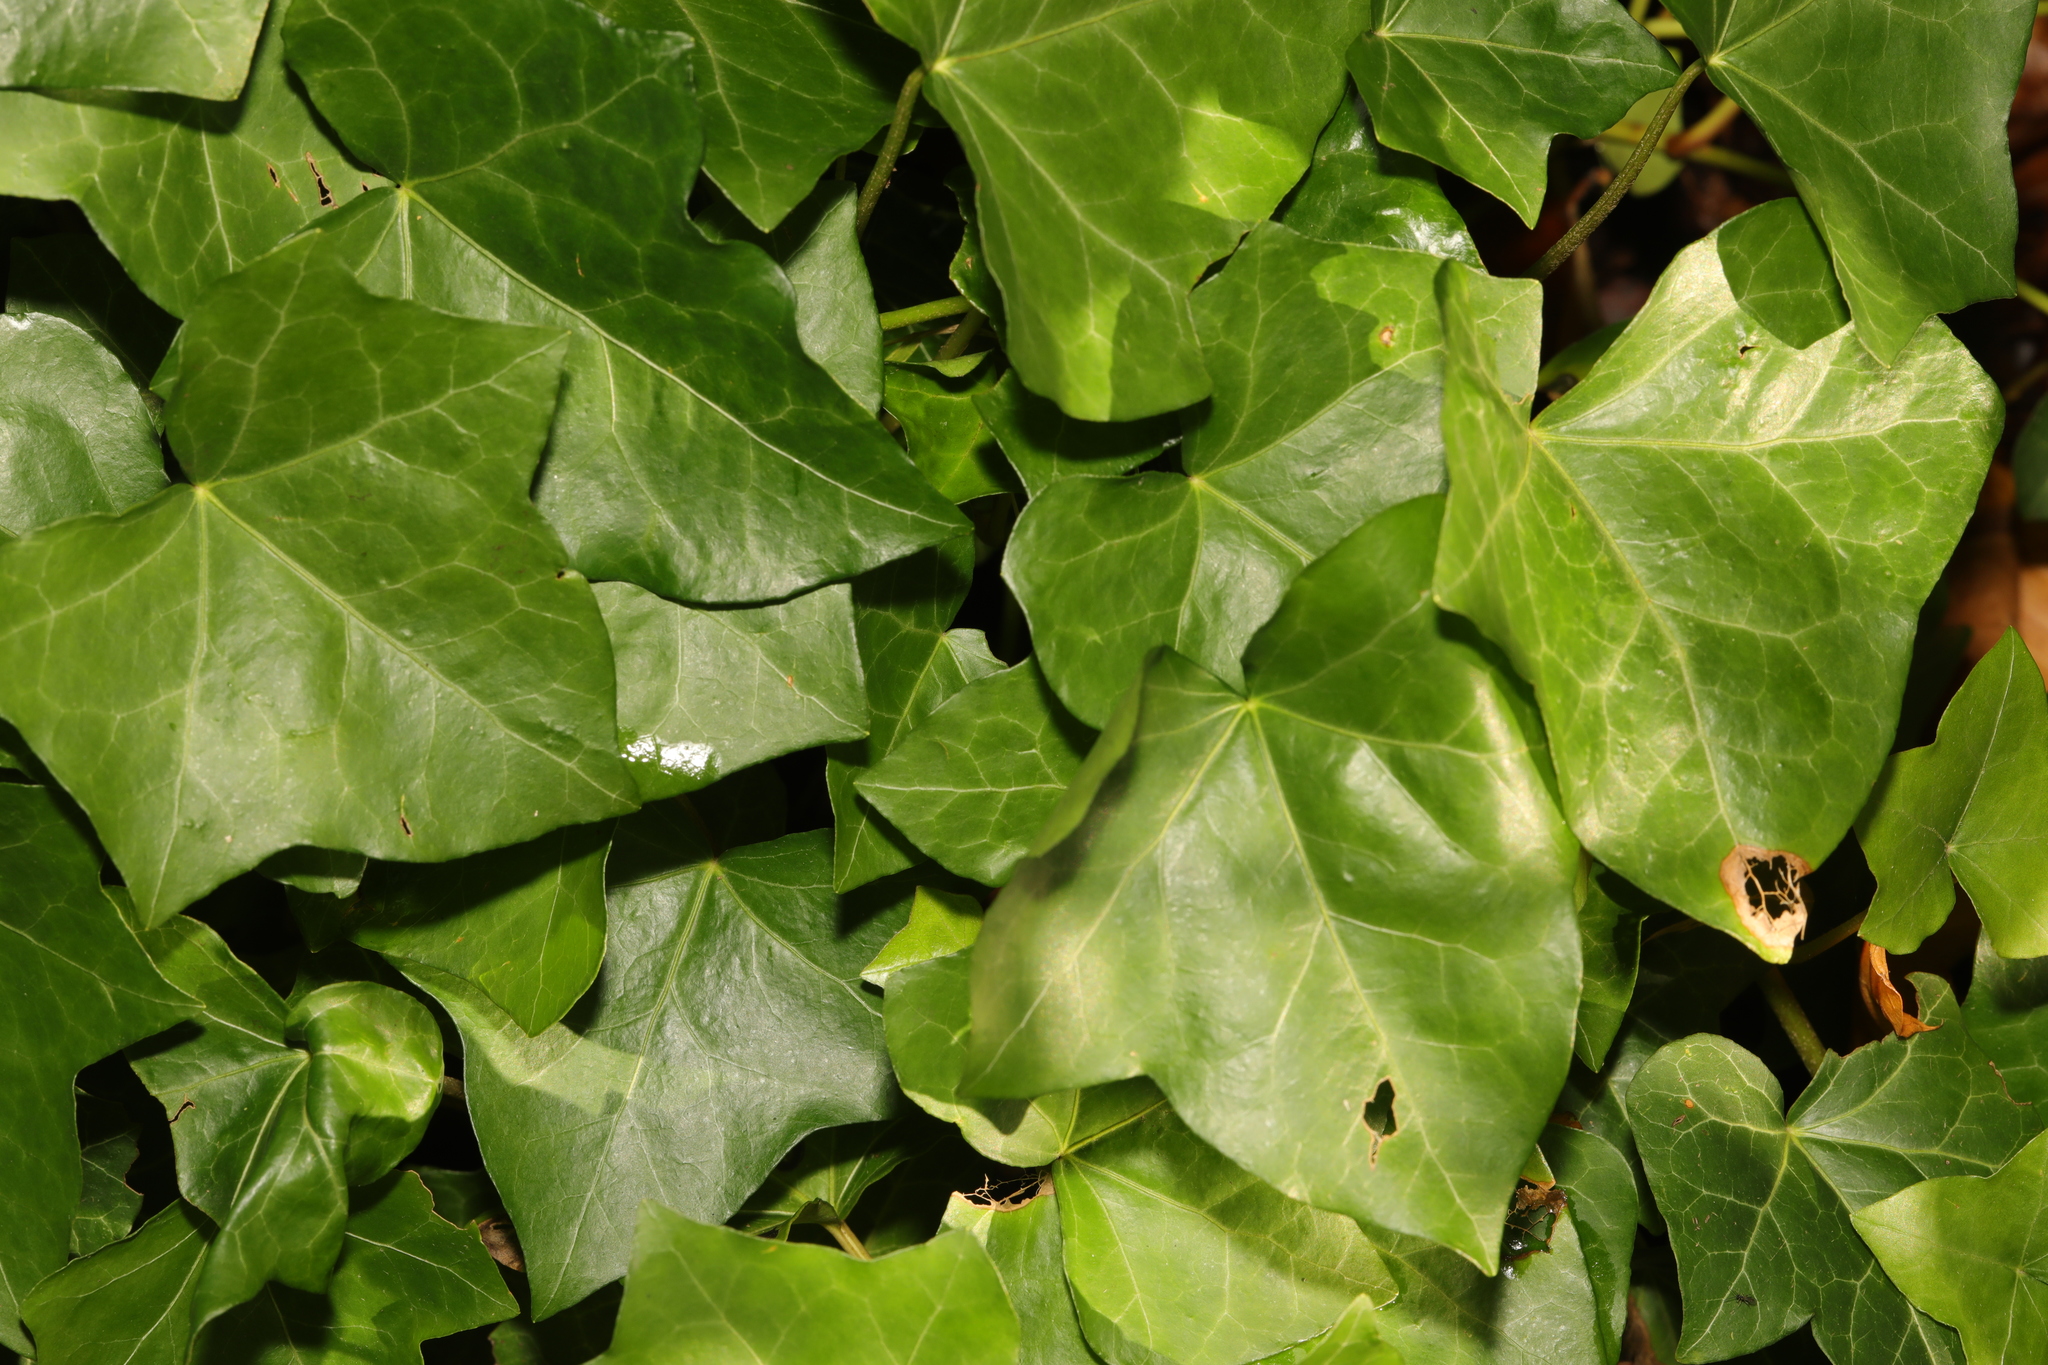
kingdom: Plantae
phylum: Tracheophyta
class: Magnoliopsida
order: Apiales
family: Araliaceae
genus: Hedera
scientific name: Hedera helix
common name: Ivy
